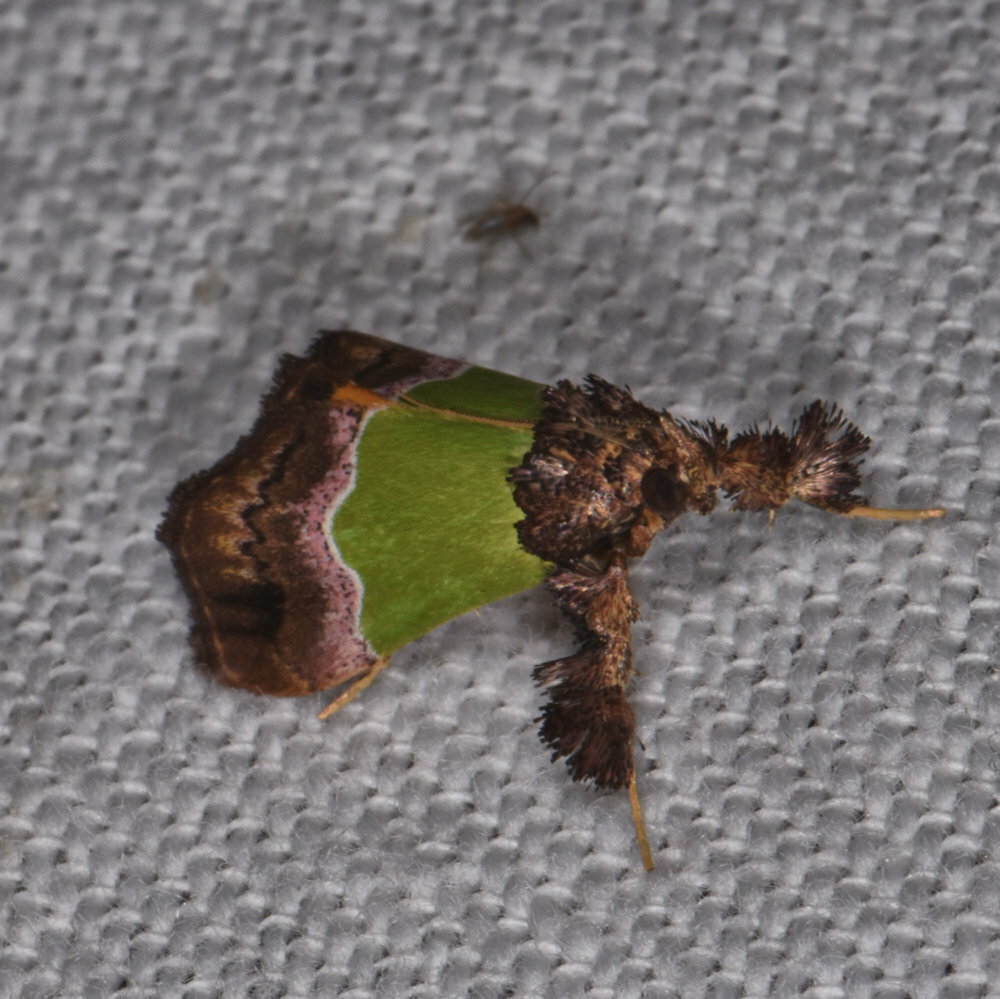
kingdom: Animalia
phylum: Arthropoda
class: Insecta
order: Lepidoptera
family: Pyralidae
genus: Epidelia
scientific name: Epidelia damia
